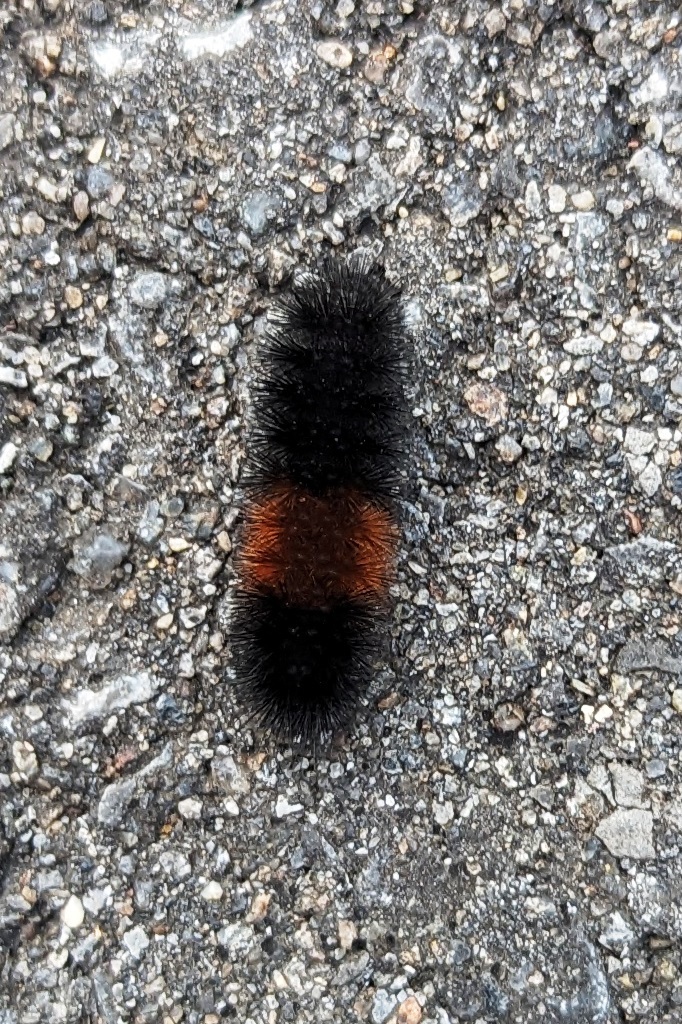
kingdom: Animalia
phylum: Arthropoda
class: Insecta
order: Lepidoptera
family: Erebidae
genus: Pyrrharctia
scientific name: Pyrrharctia isabella
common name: Isabella tiger moth
